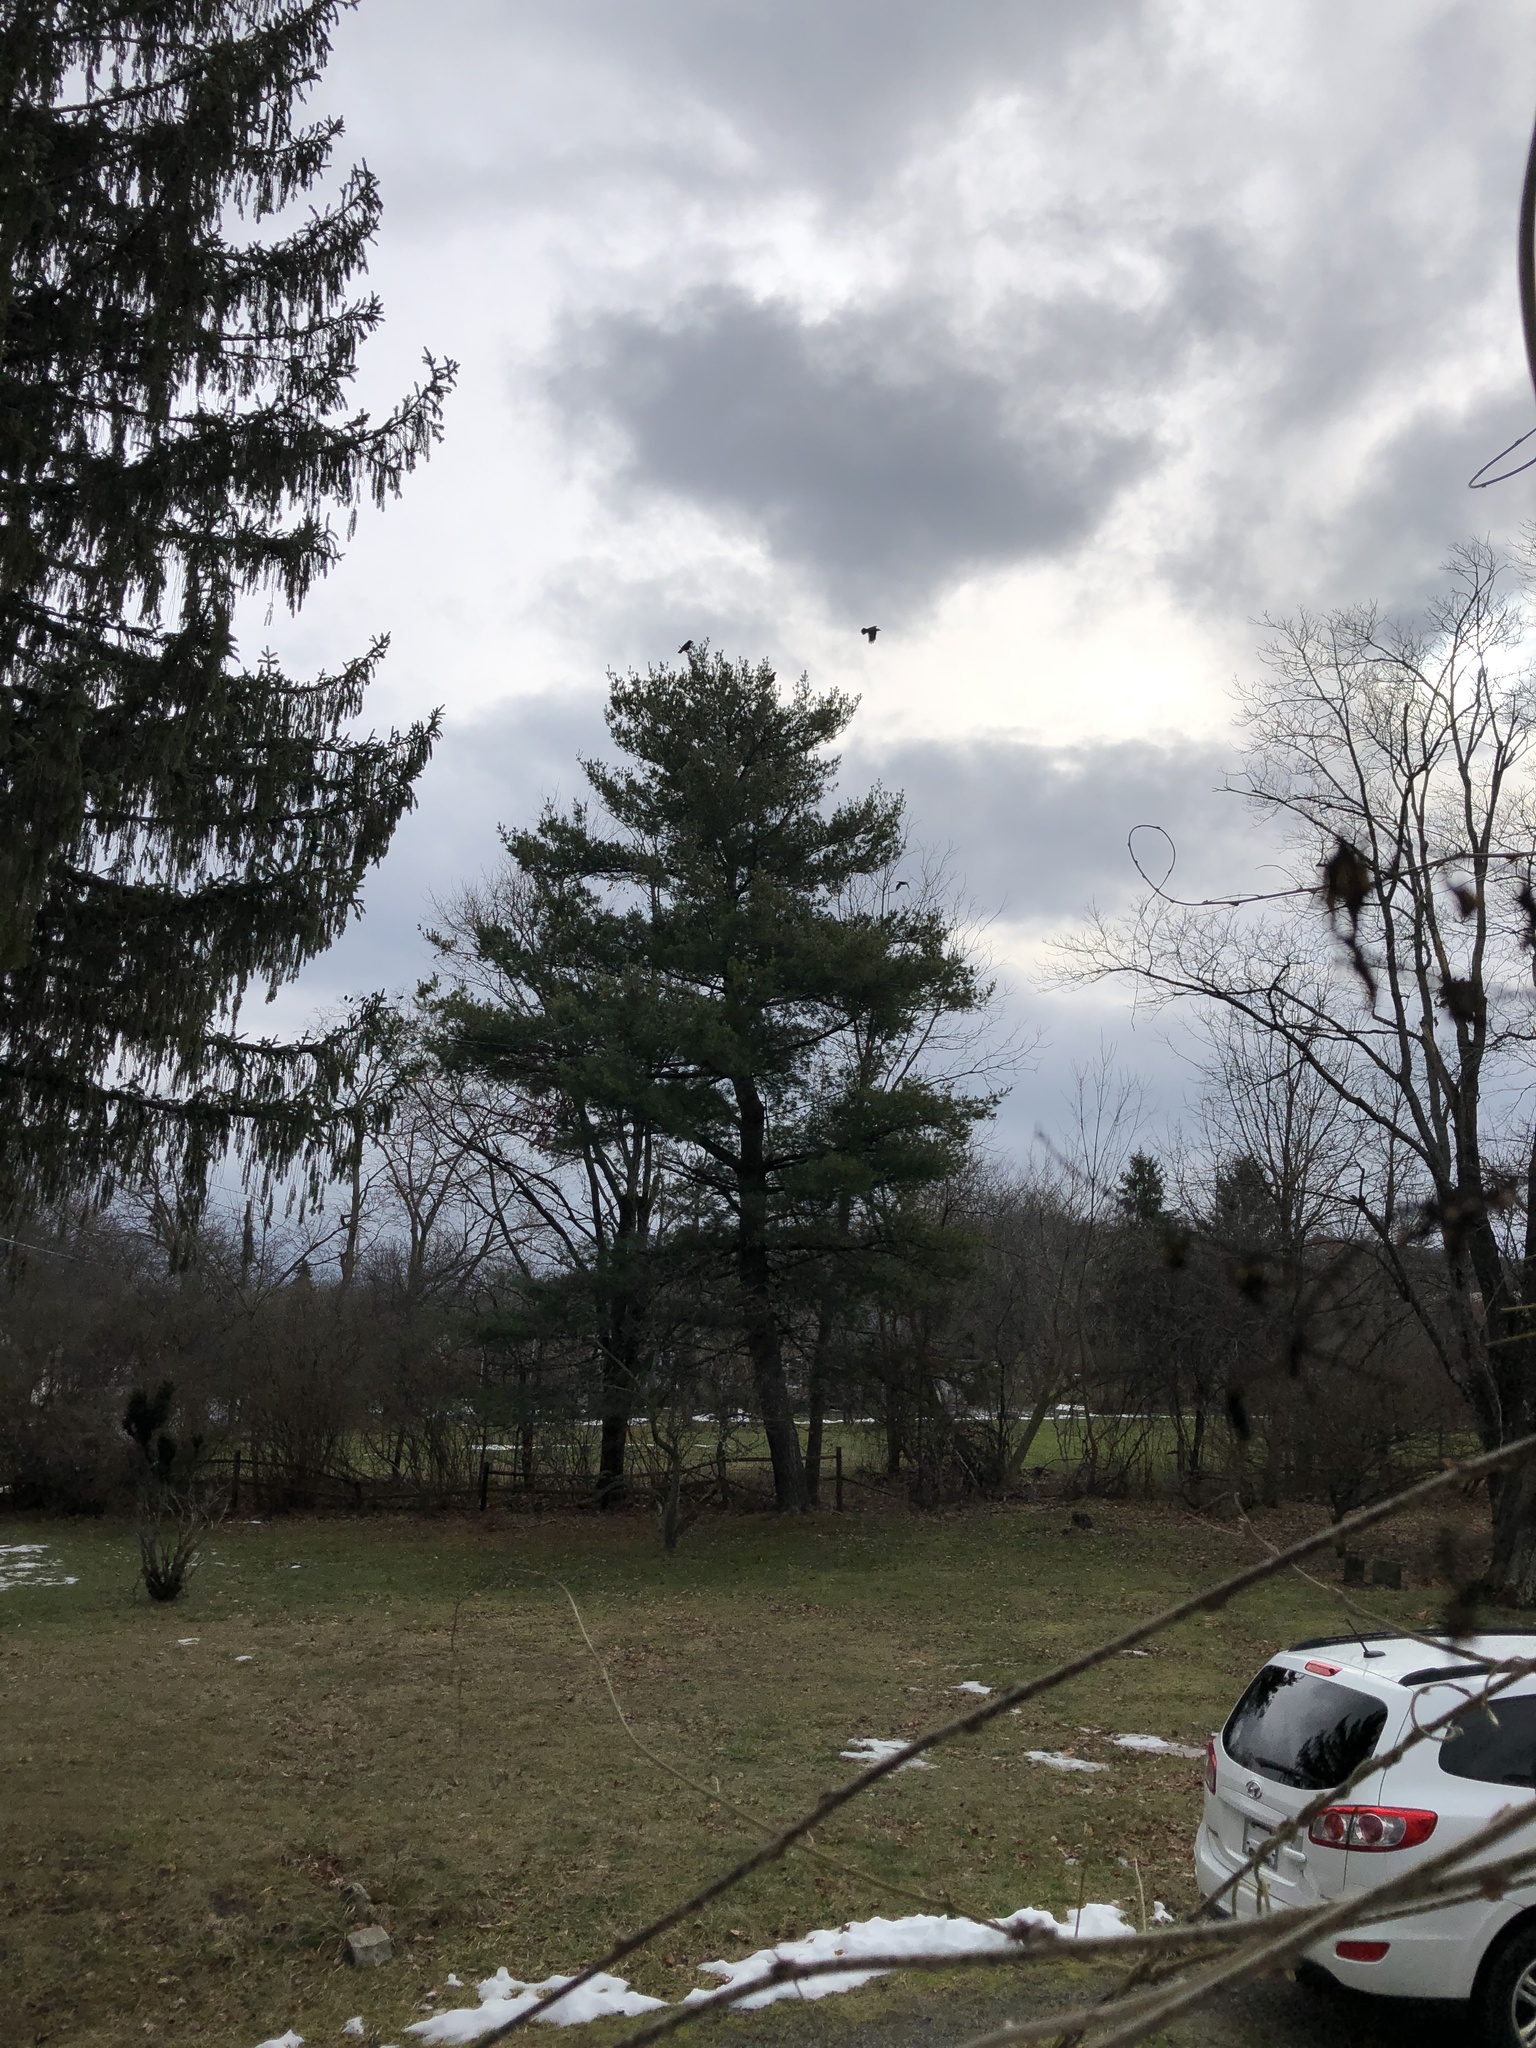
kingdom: Animalia
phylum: Chordata
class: Aves
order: Passeriformes
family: Corvidae
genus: Corvus
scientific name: Corvus
